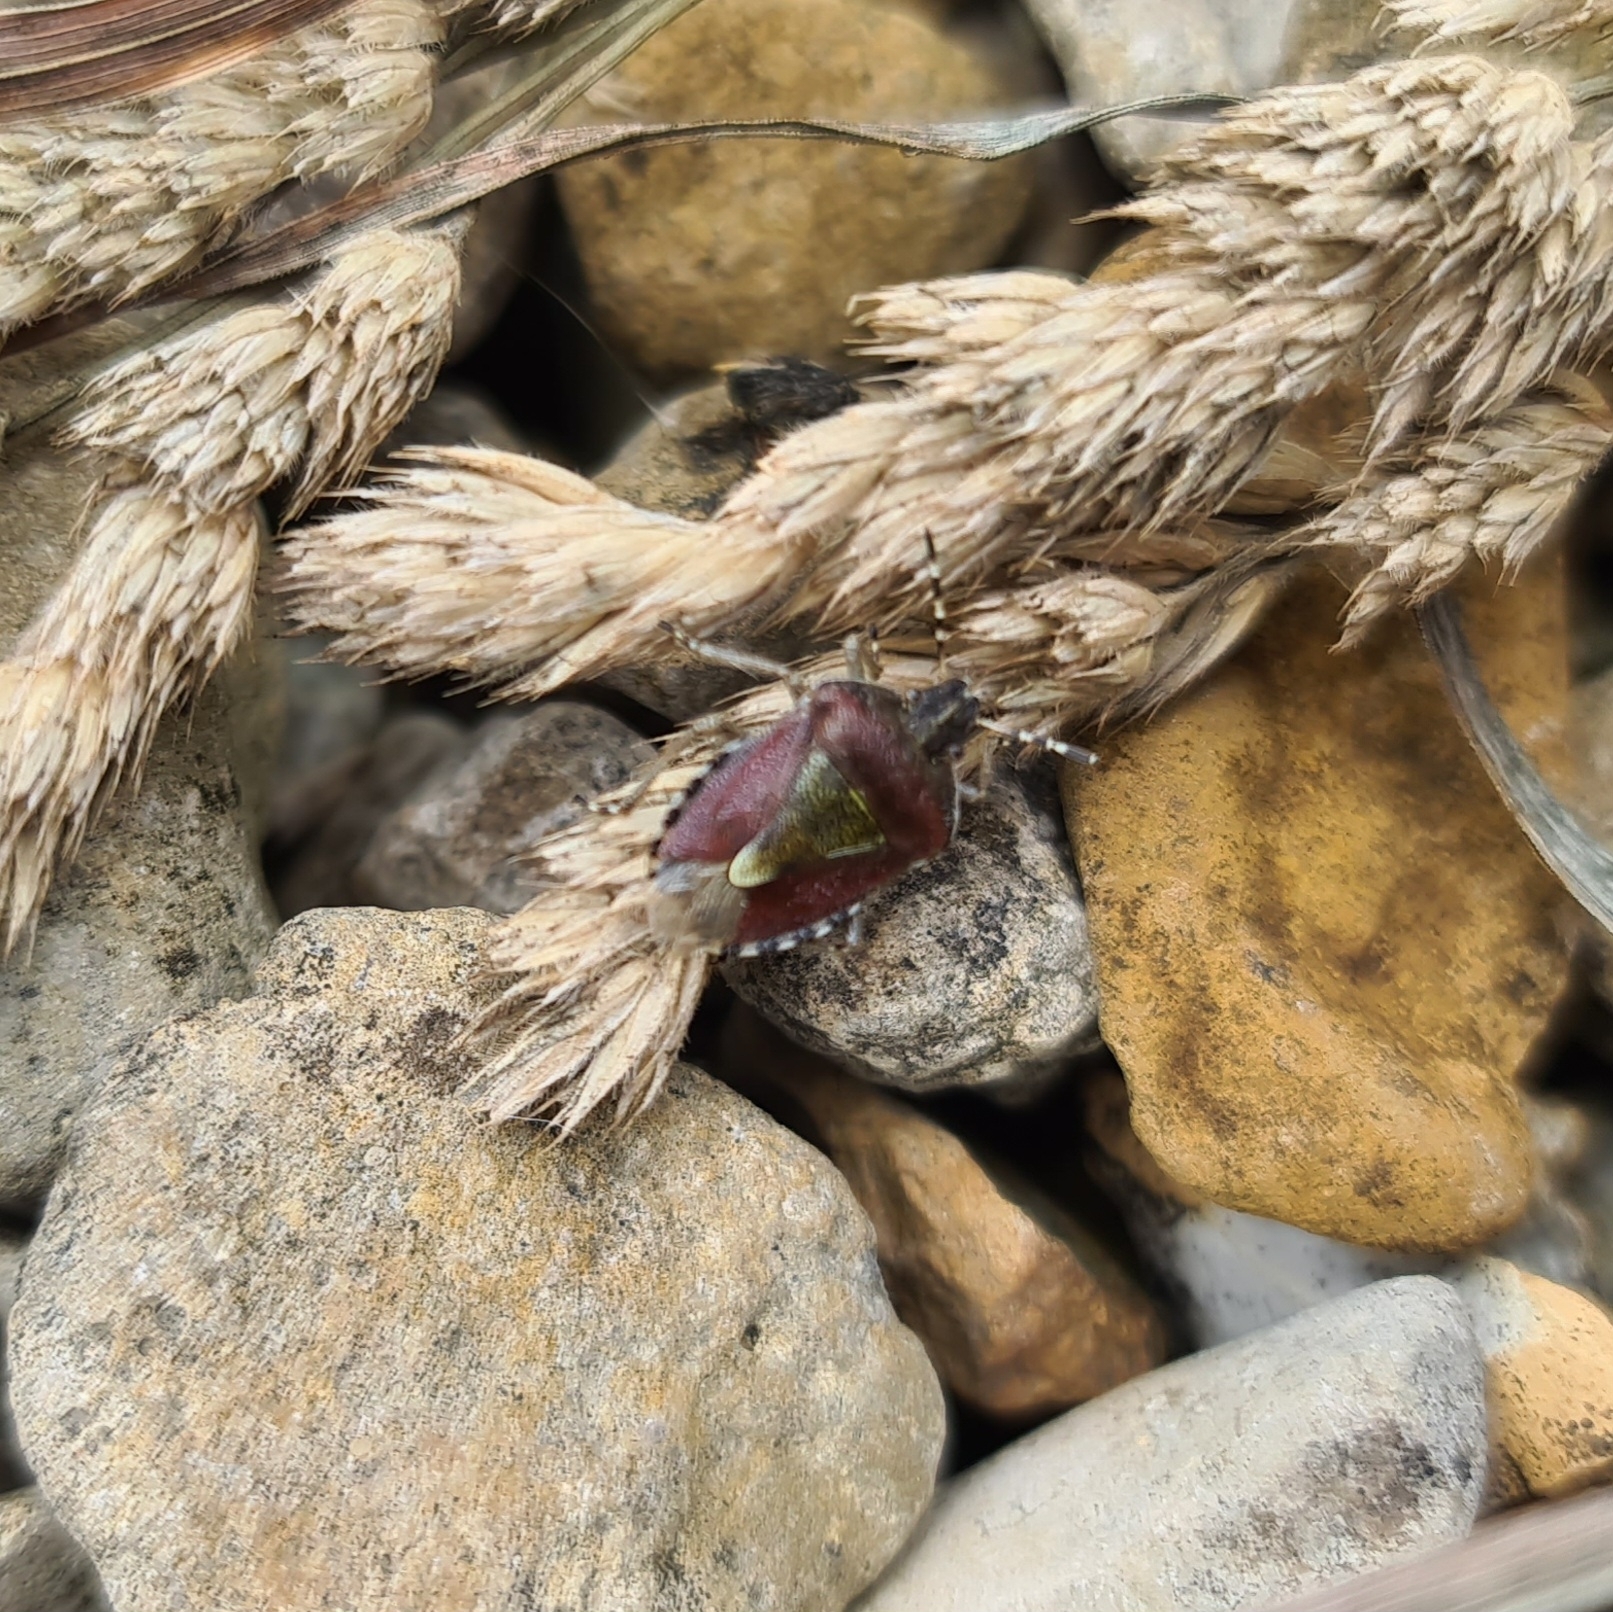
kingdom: Animalia
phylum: Arthropoda
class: Insecta
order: Hemiptera
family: Pentatomidae
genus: Dolycoris
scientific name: Dolycoris baccarum
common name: Sloe bug
